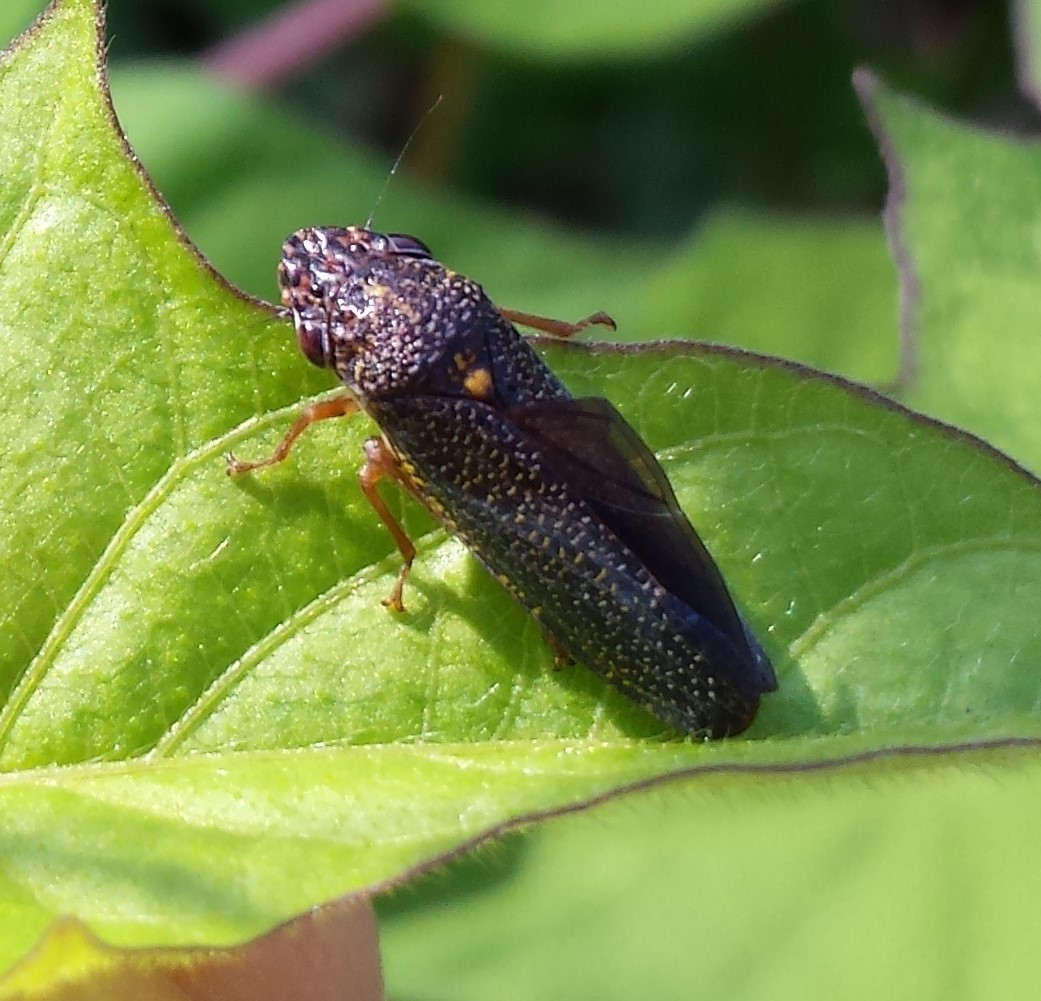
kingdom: Animalia
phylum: Arthropoda
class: Insecta
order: Hemiptera
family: Cicadellidae
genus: Paraulacizes
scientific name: Paraulacizes irrorata
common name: Speckled sharpshooter
